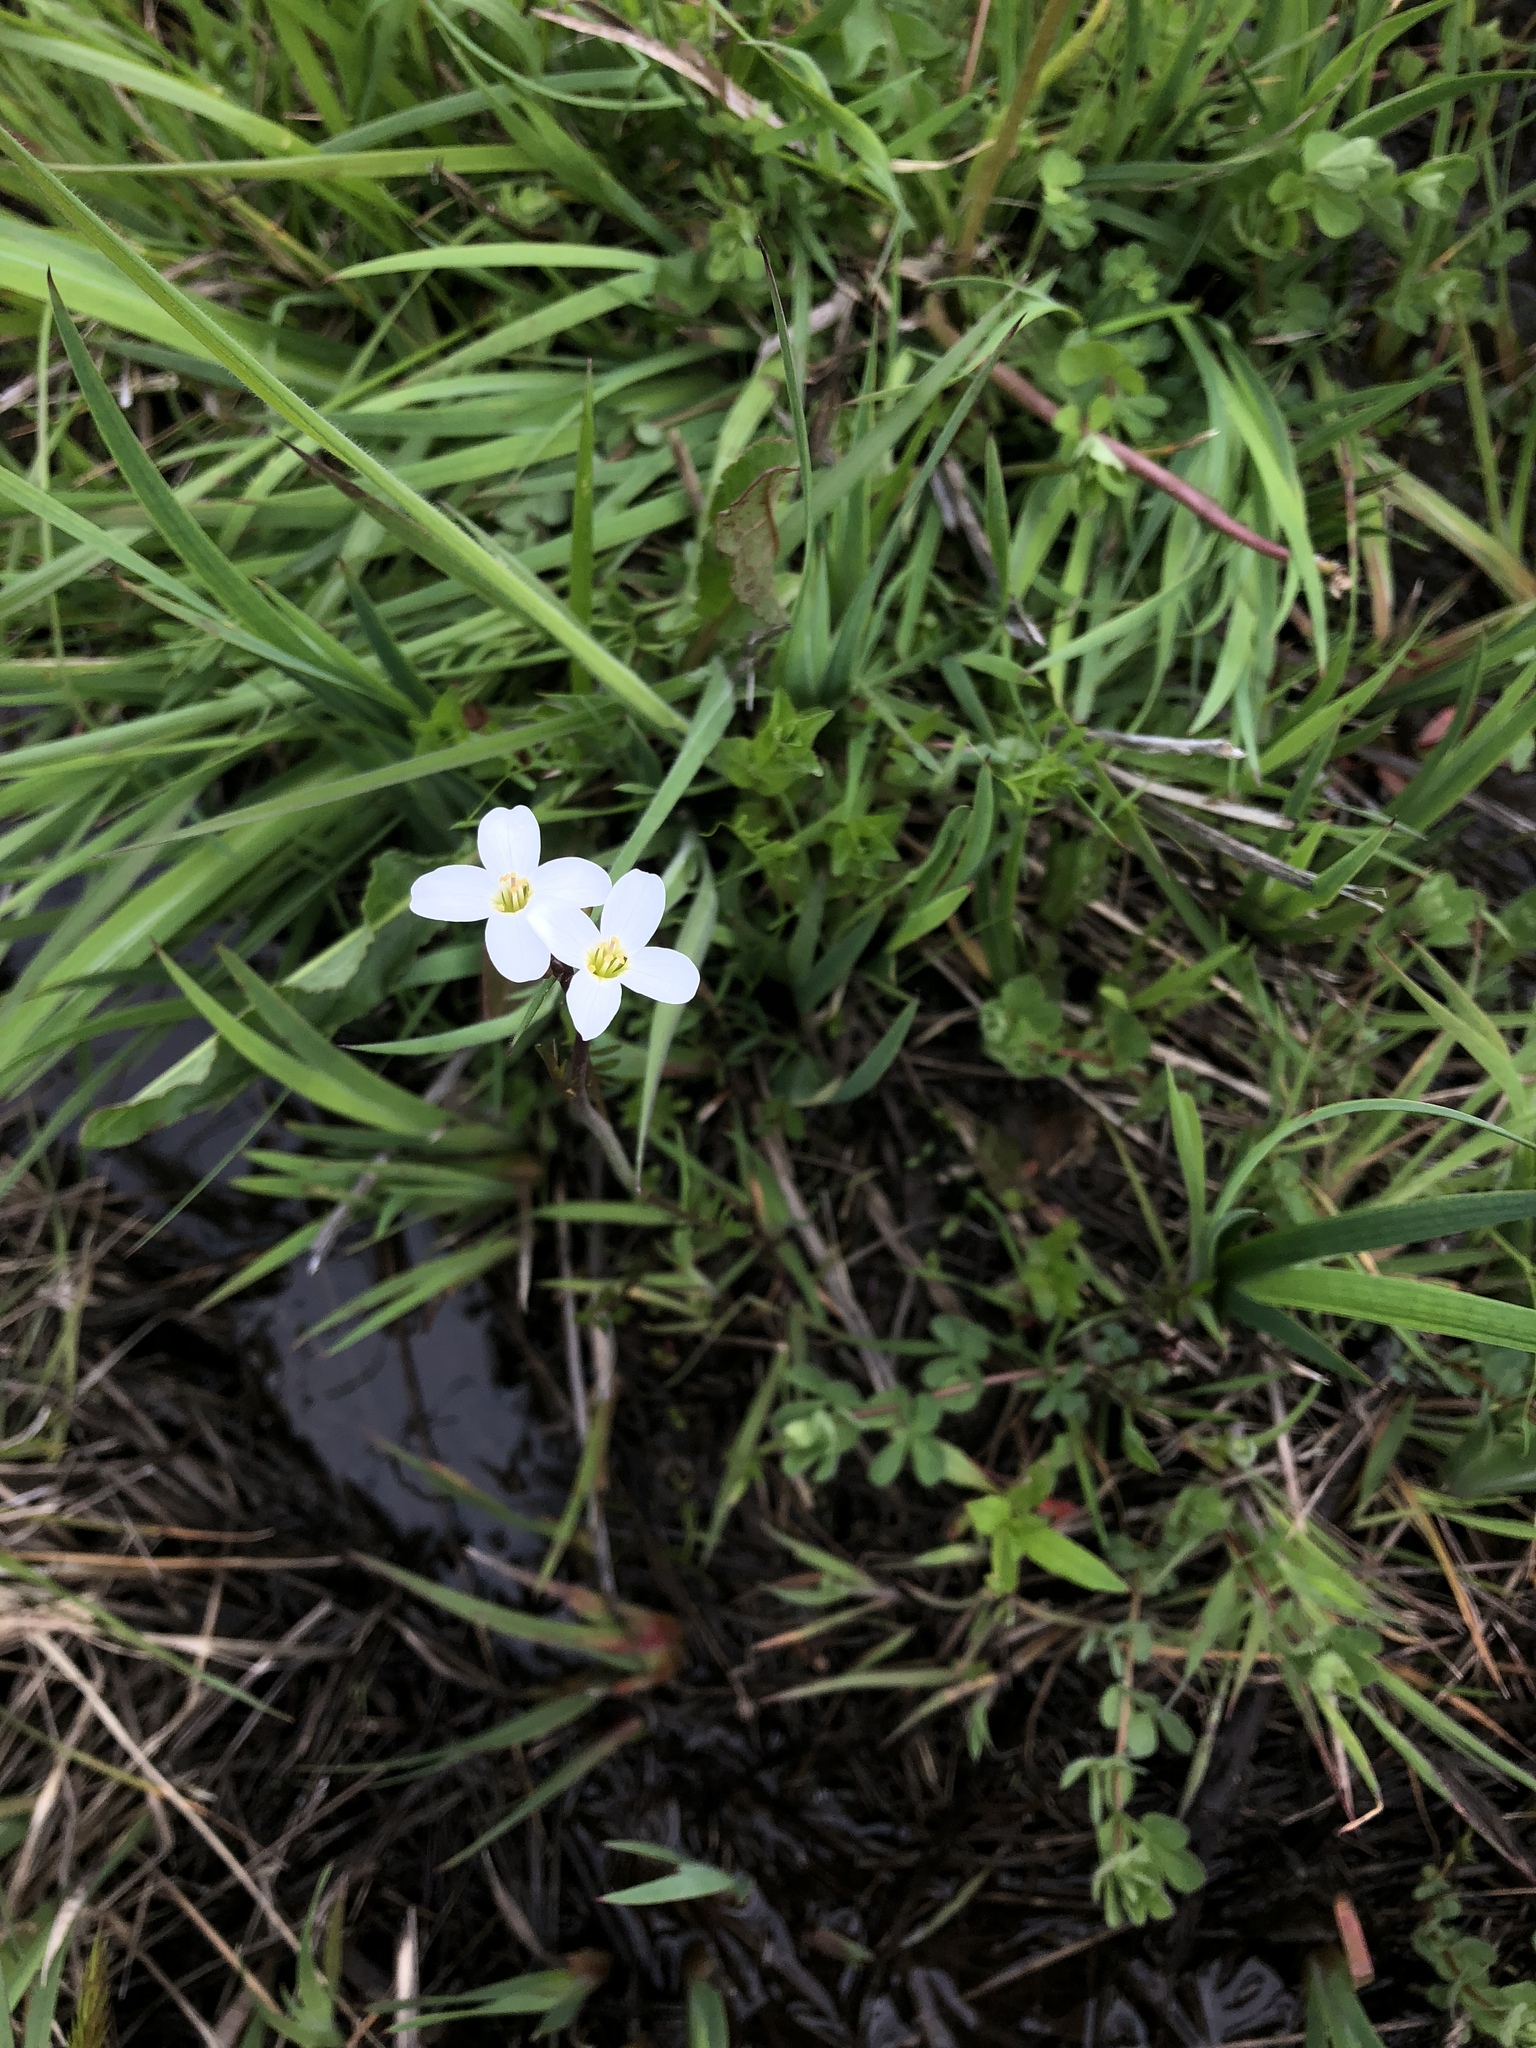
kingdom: Plantae
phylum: Tracheophyta
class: Magnoliopsida
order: Brassicales
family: Brassicaceae
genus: Cardamine
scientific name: Cardamine penduliflora
